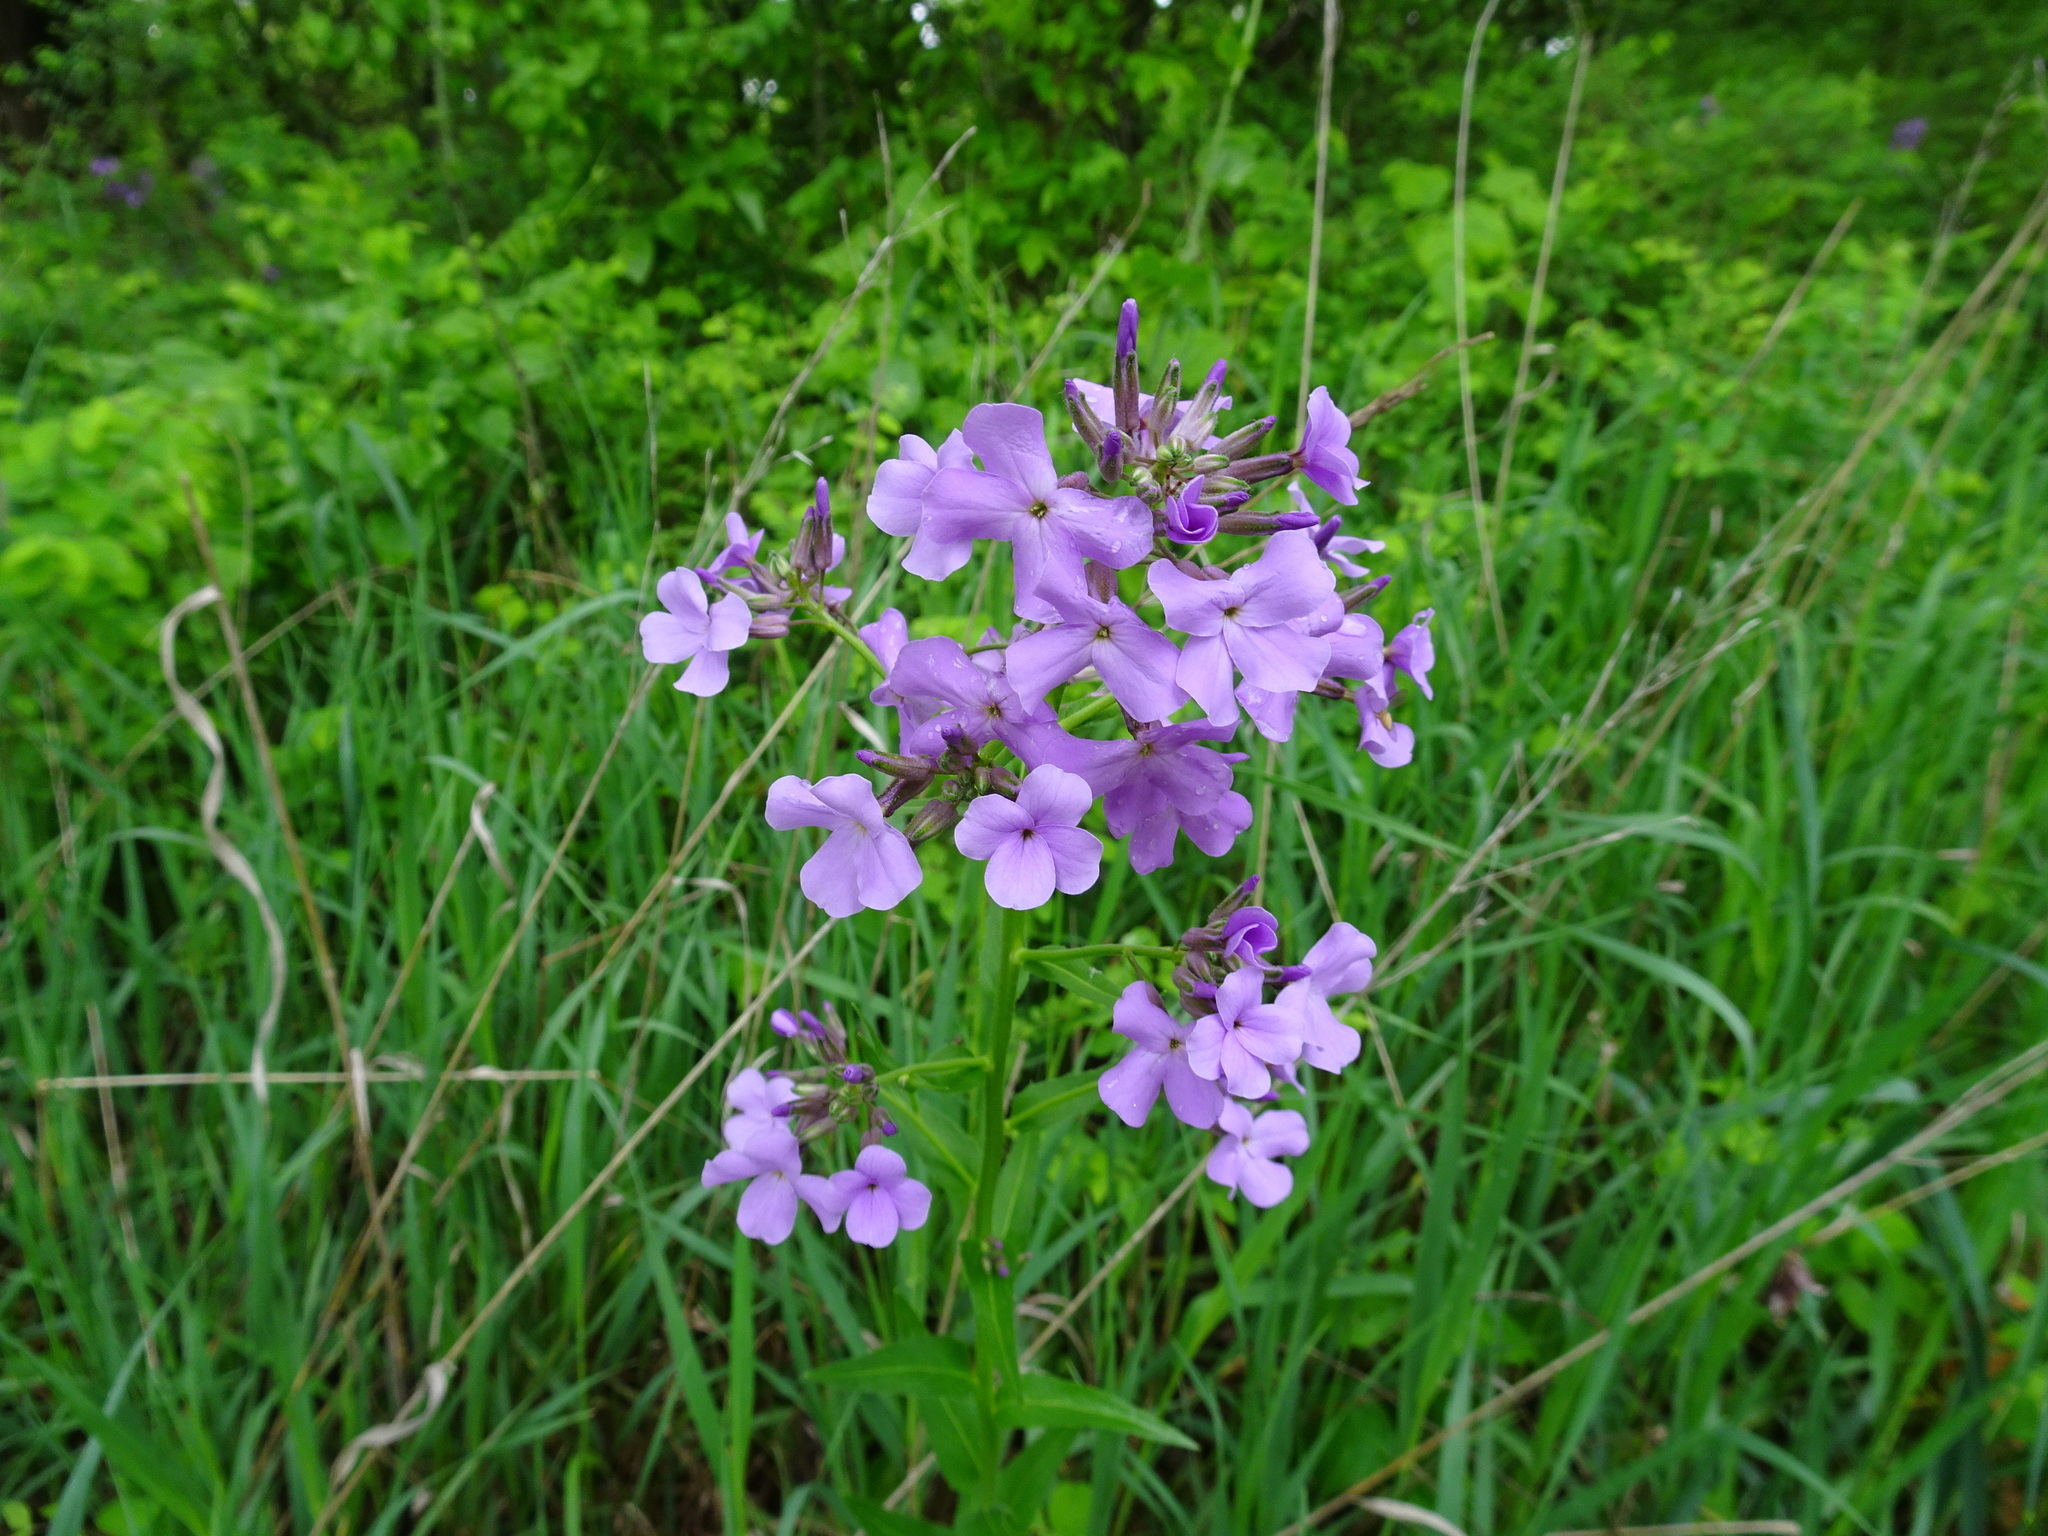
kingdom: Plantae
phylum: Tracheophyta
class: Magnoliopsida
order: Brassicales
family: Brassicaceae
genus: Hesperis
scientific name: Hesperis matronalis
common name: Dame's-violet
